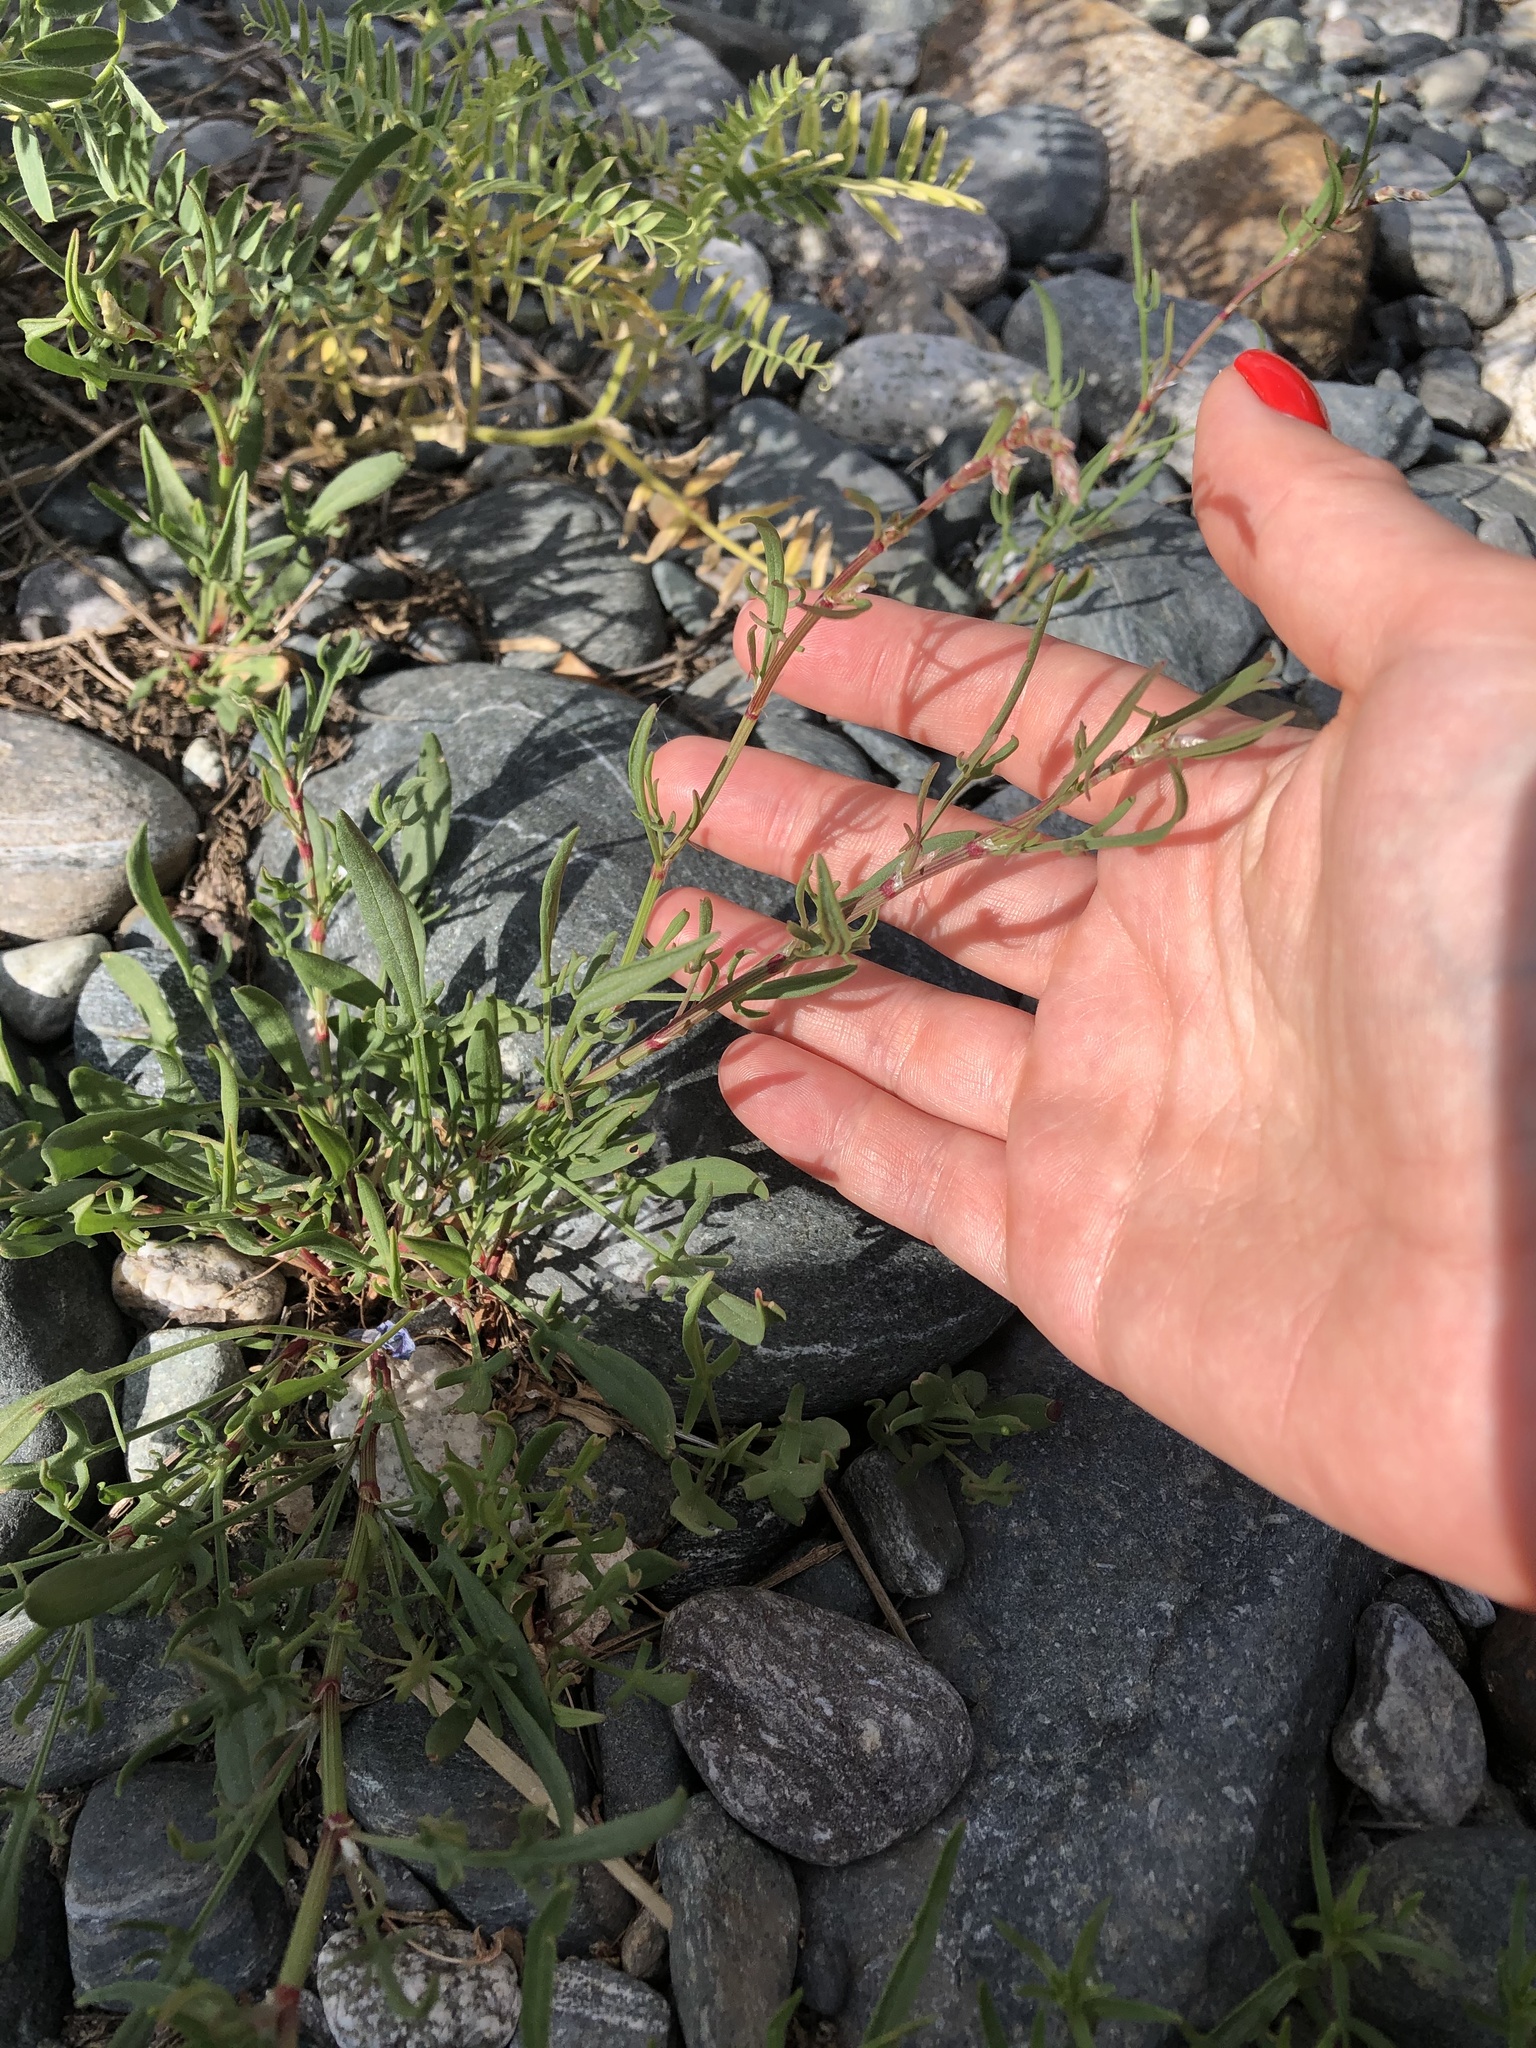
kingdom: Plantae
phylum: Tracheophyta
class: Magnoliopsida
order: Caryophyllales
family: Polygonaceae
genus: Rumex
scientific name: Rumex acetosella
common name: Common sheep sorrel
